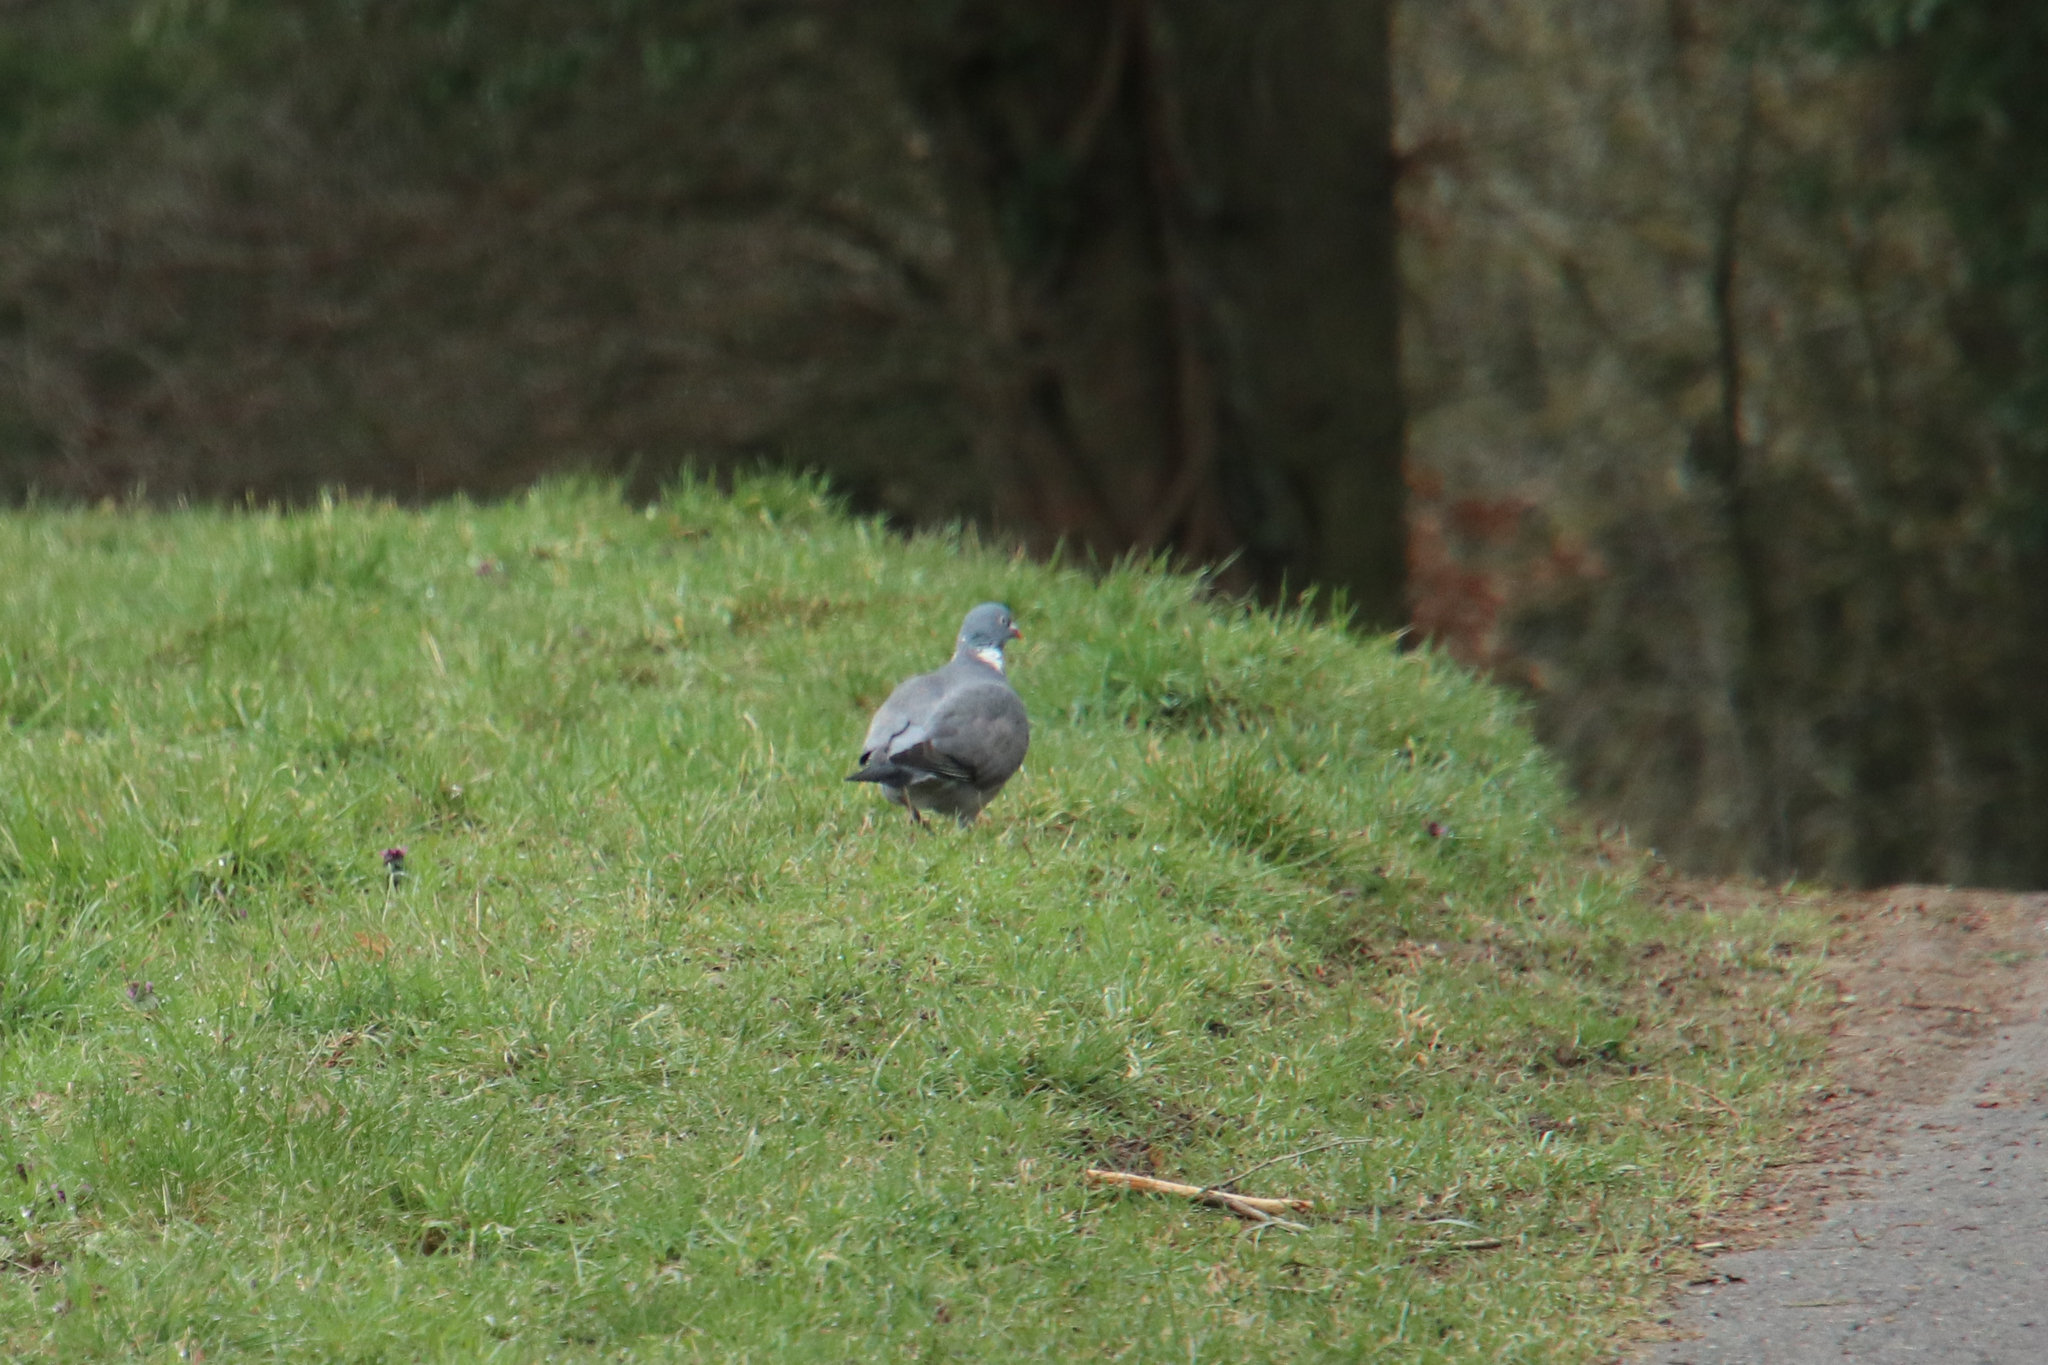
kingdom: Animalia
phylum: Chordata
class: Aves
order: Columbiformes
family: Columbidae
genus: Columba
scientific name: Columba palumbus
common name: Common wood pigeon
